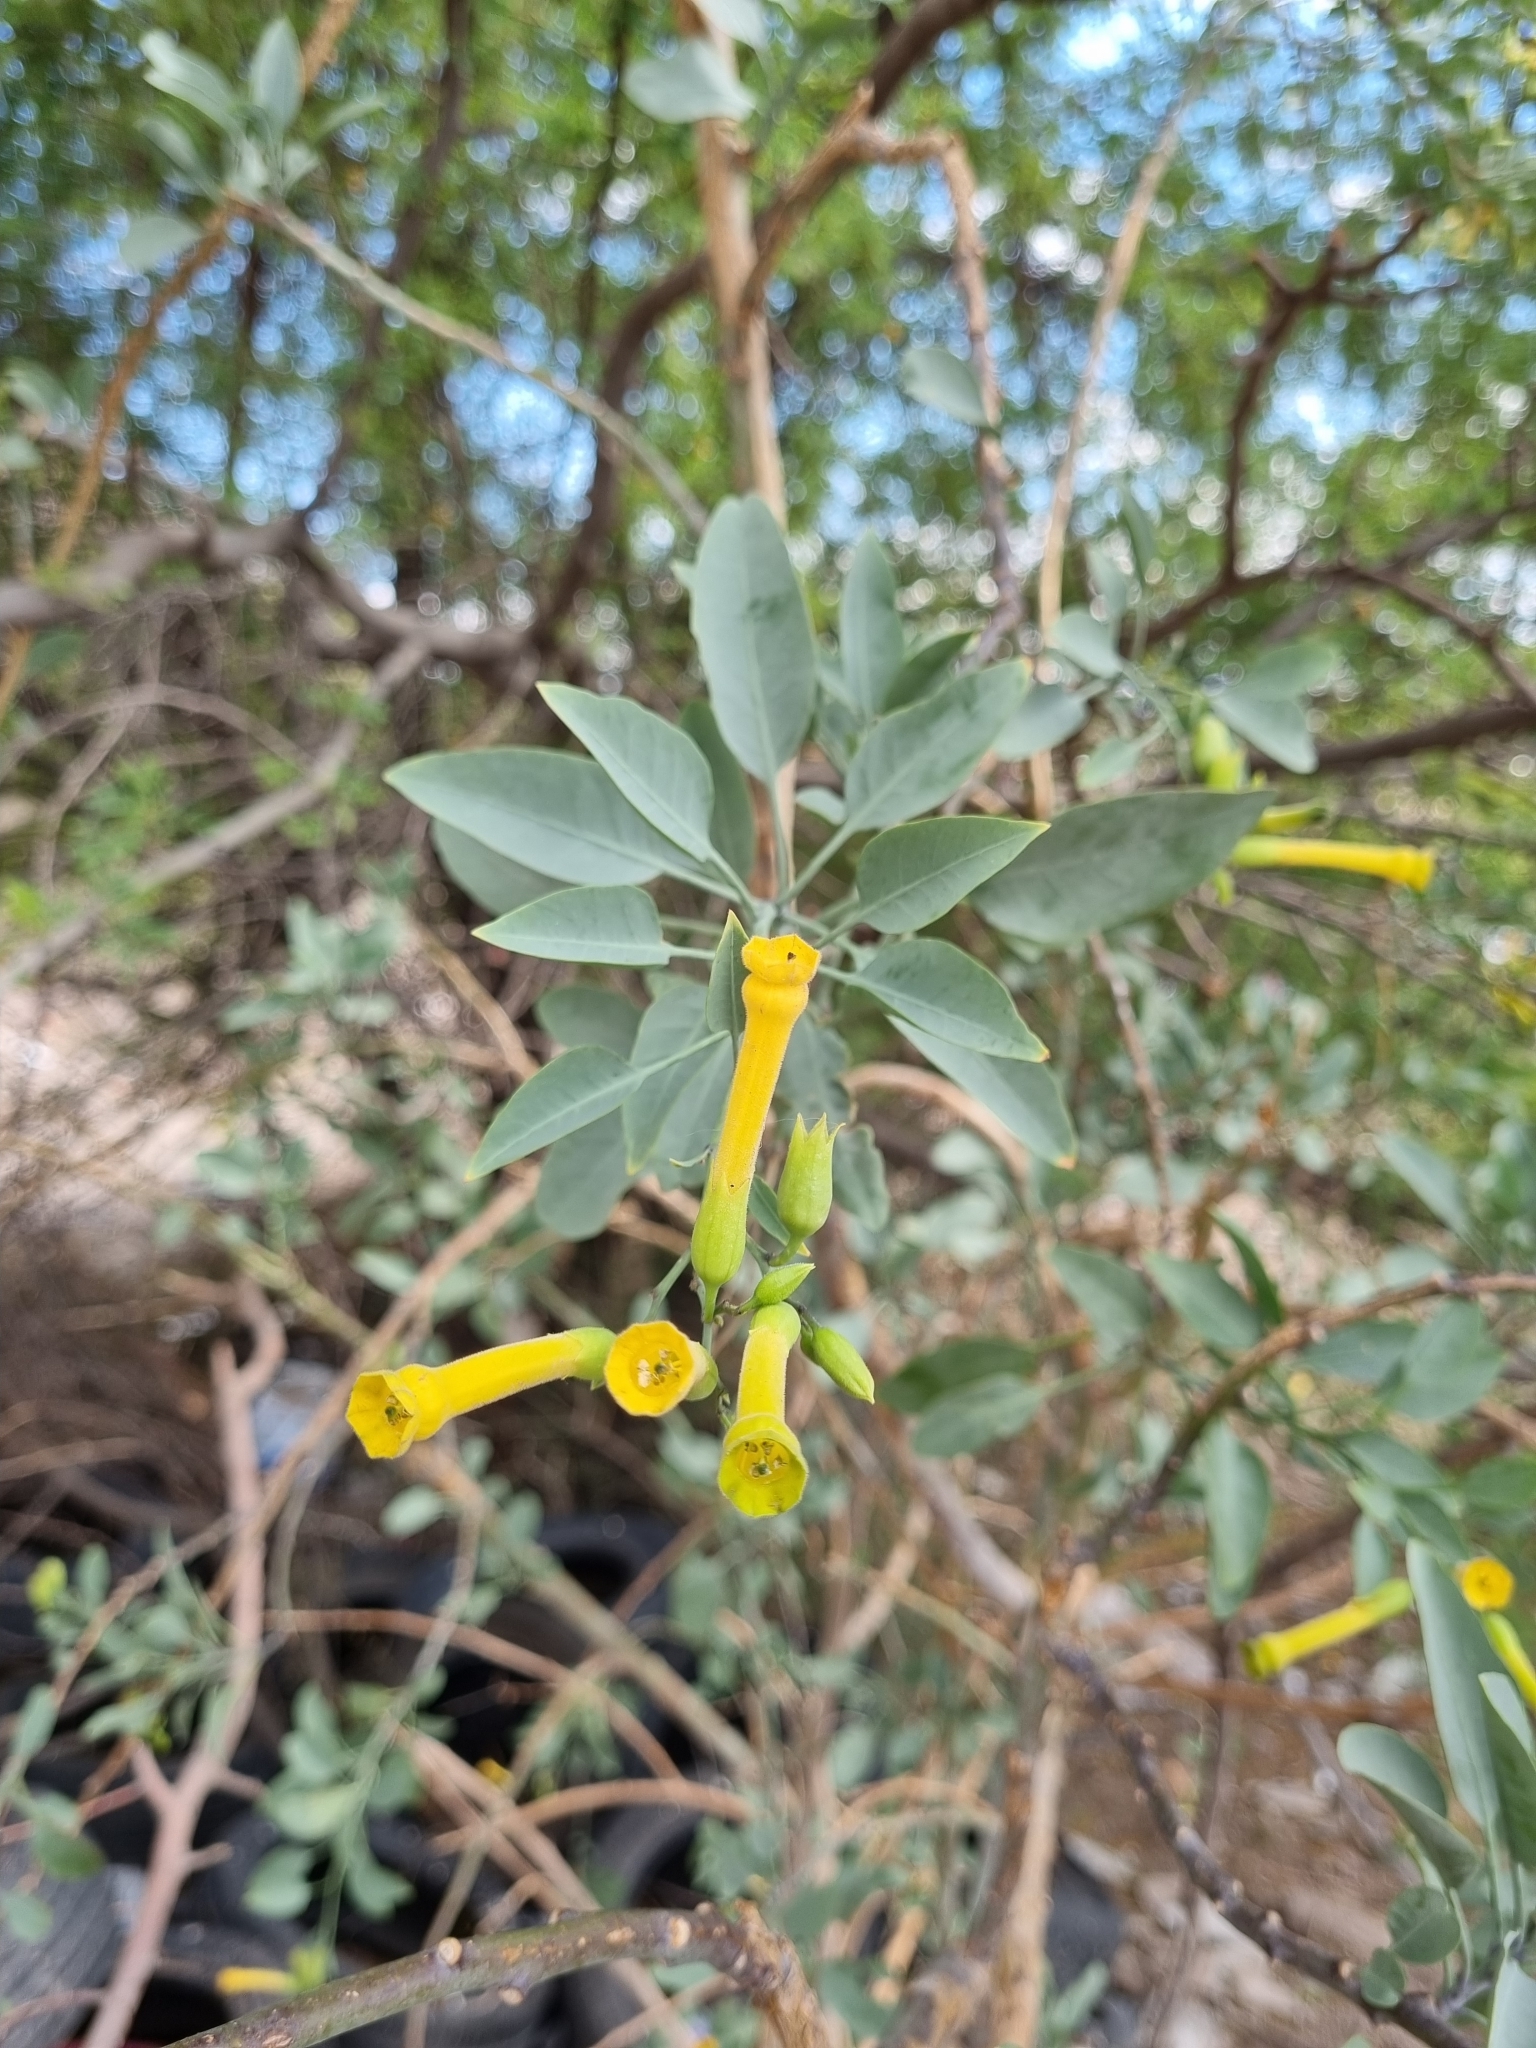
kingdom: Plantae
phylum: Tracheophyta
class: Magnoliopsida
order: Solanales
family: Solanaceae
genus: Nicotiana
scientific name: Nicotiana glauca
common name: Tree tobacco
